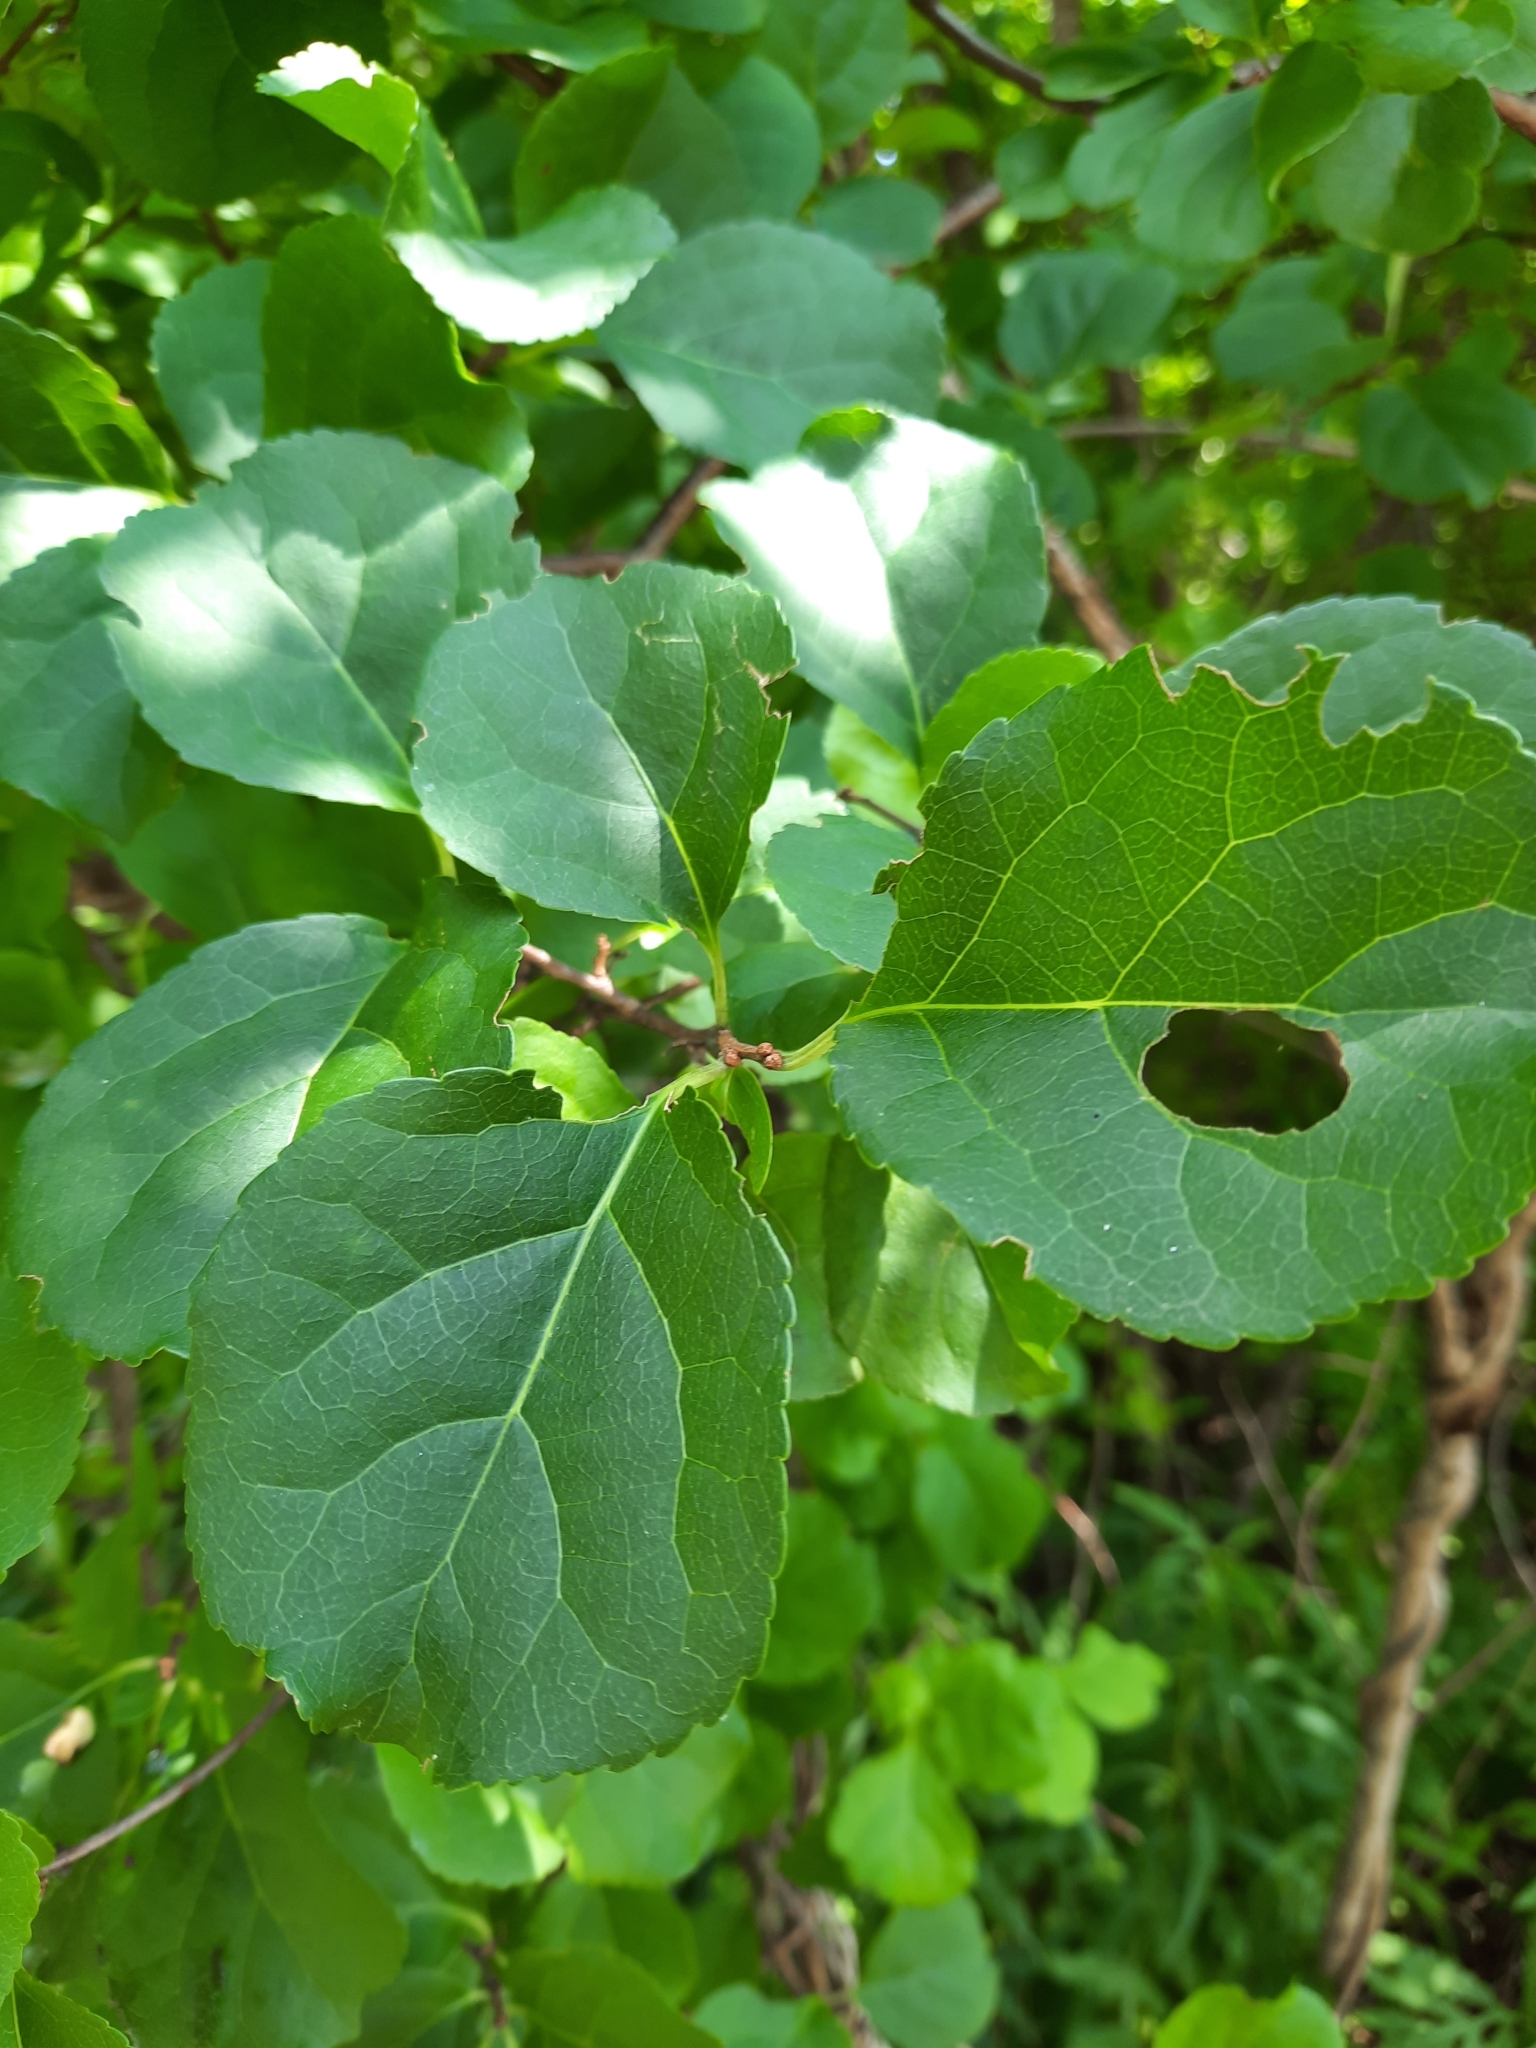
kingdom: Plantae
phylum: Tracheophyta
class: Magnoliopsida
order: Celastrales
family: Celastraceae
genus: Celastrus
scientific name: Celastrus orbiculatus
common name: Oriental bittersweet
